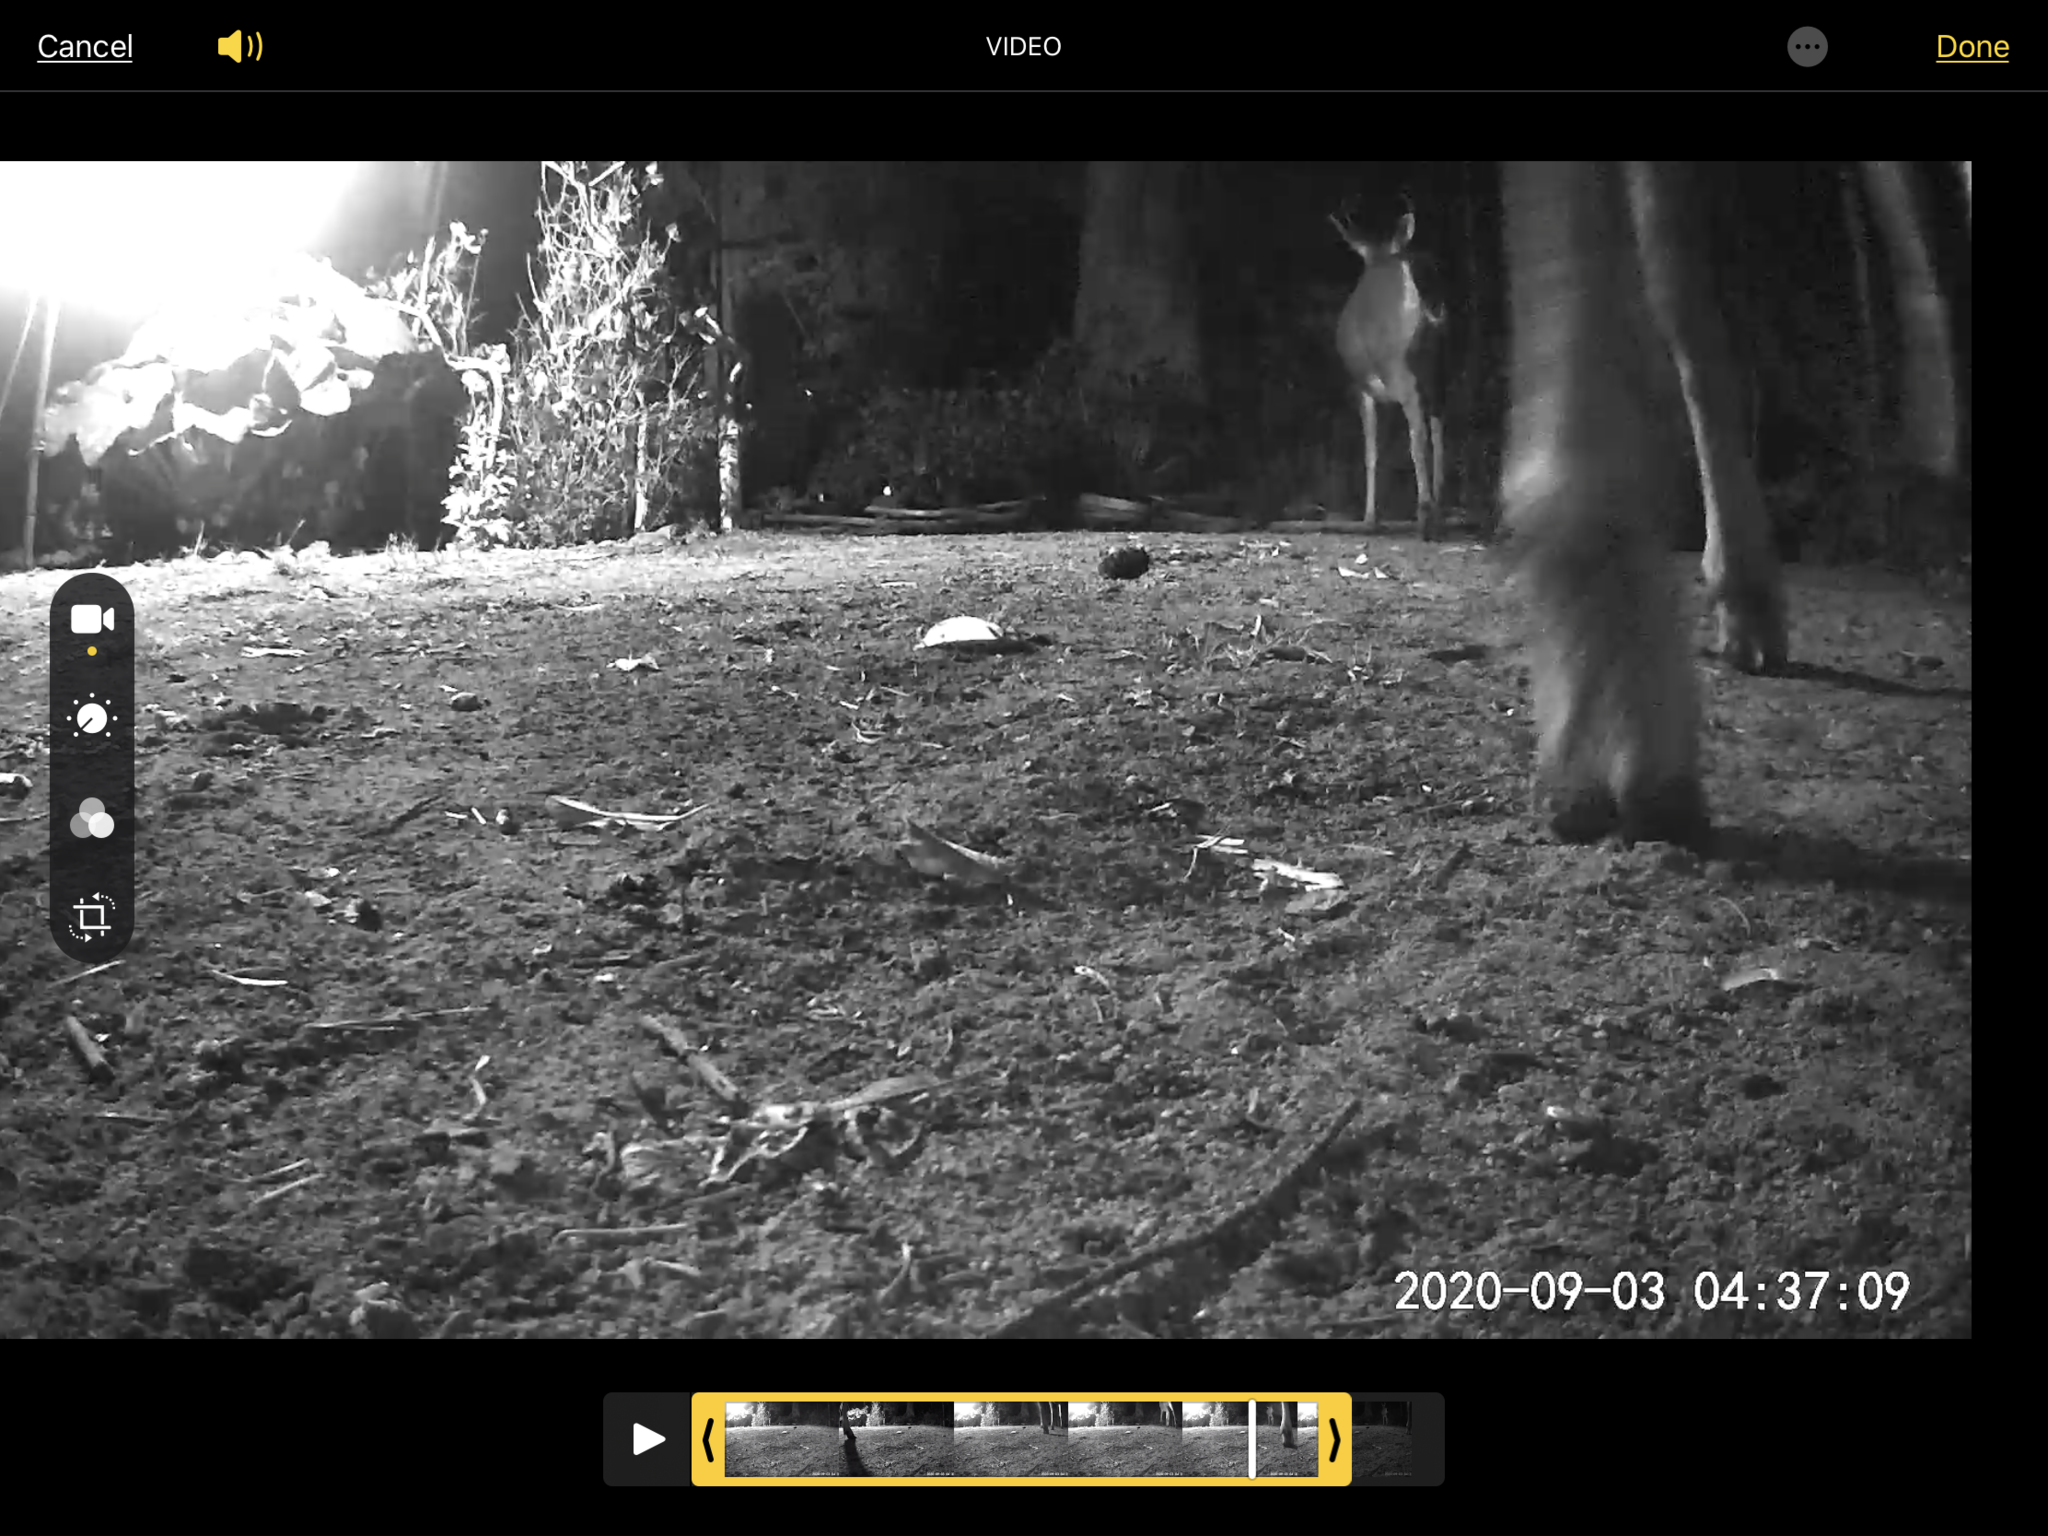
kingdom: Animalia
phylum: Chordata
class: Mammalia
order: Artiodactyla
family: Cervidae
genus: Odocoileus
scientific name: Odocoileus hemionus
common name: Mule deer
